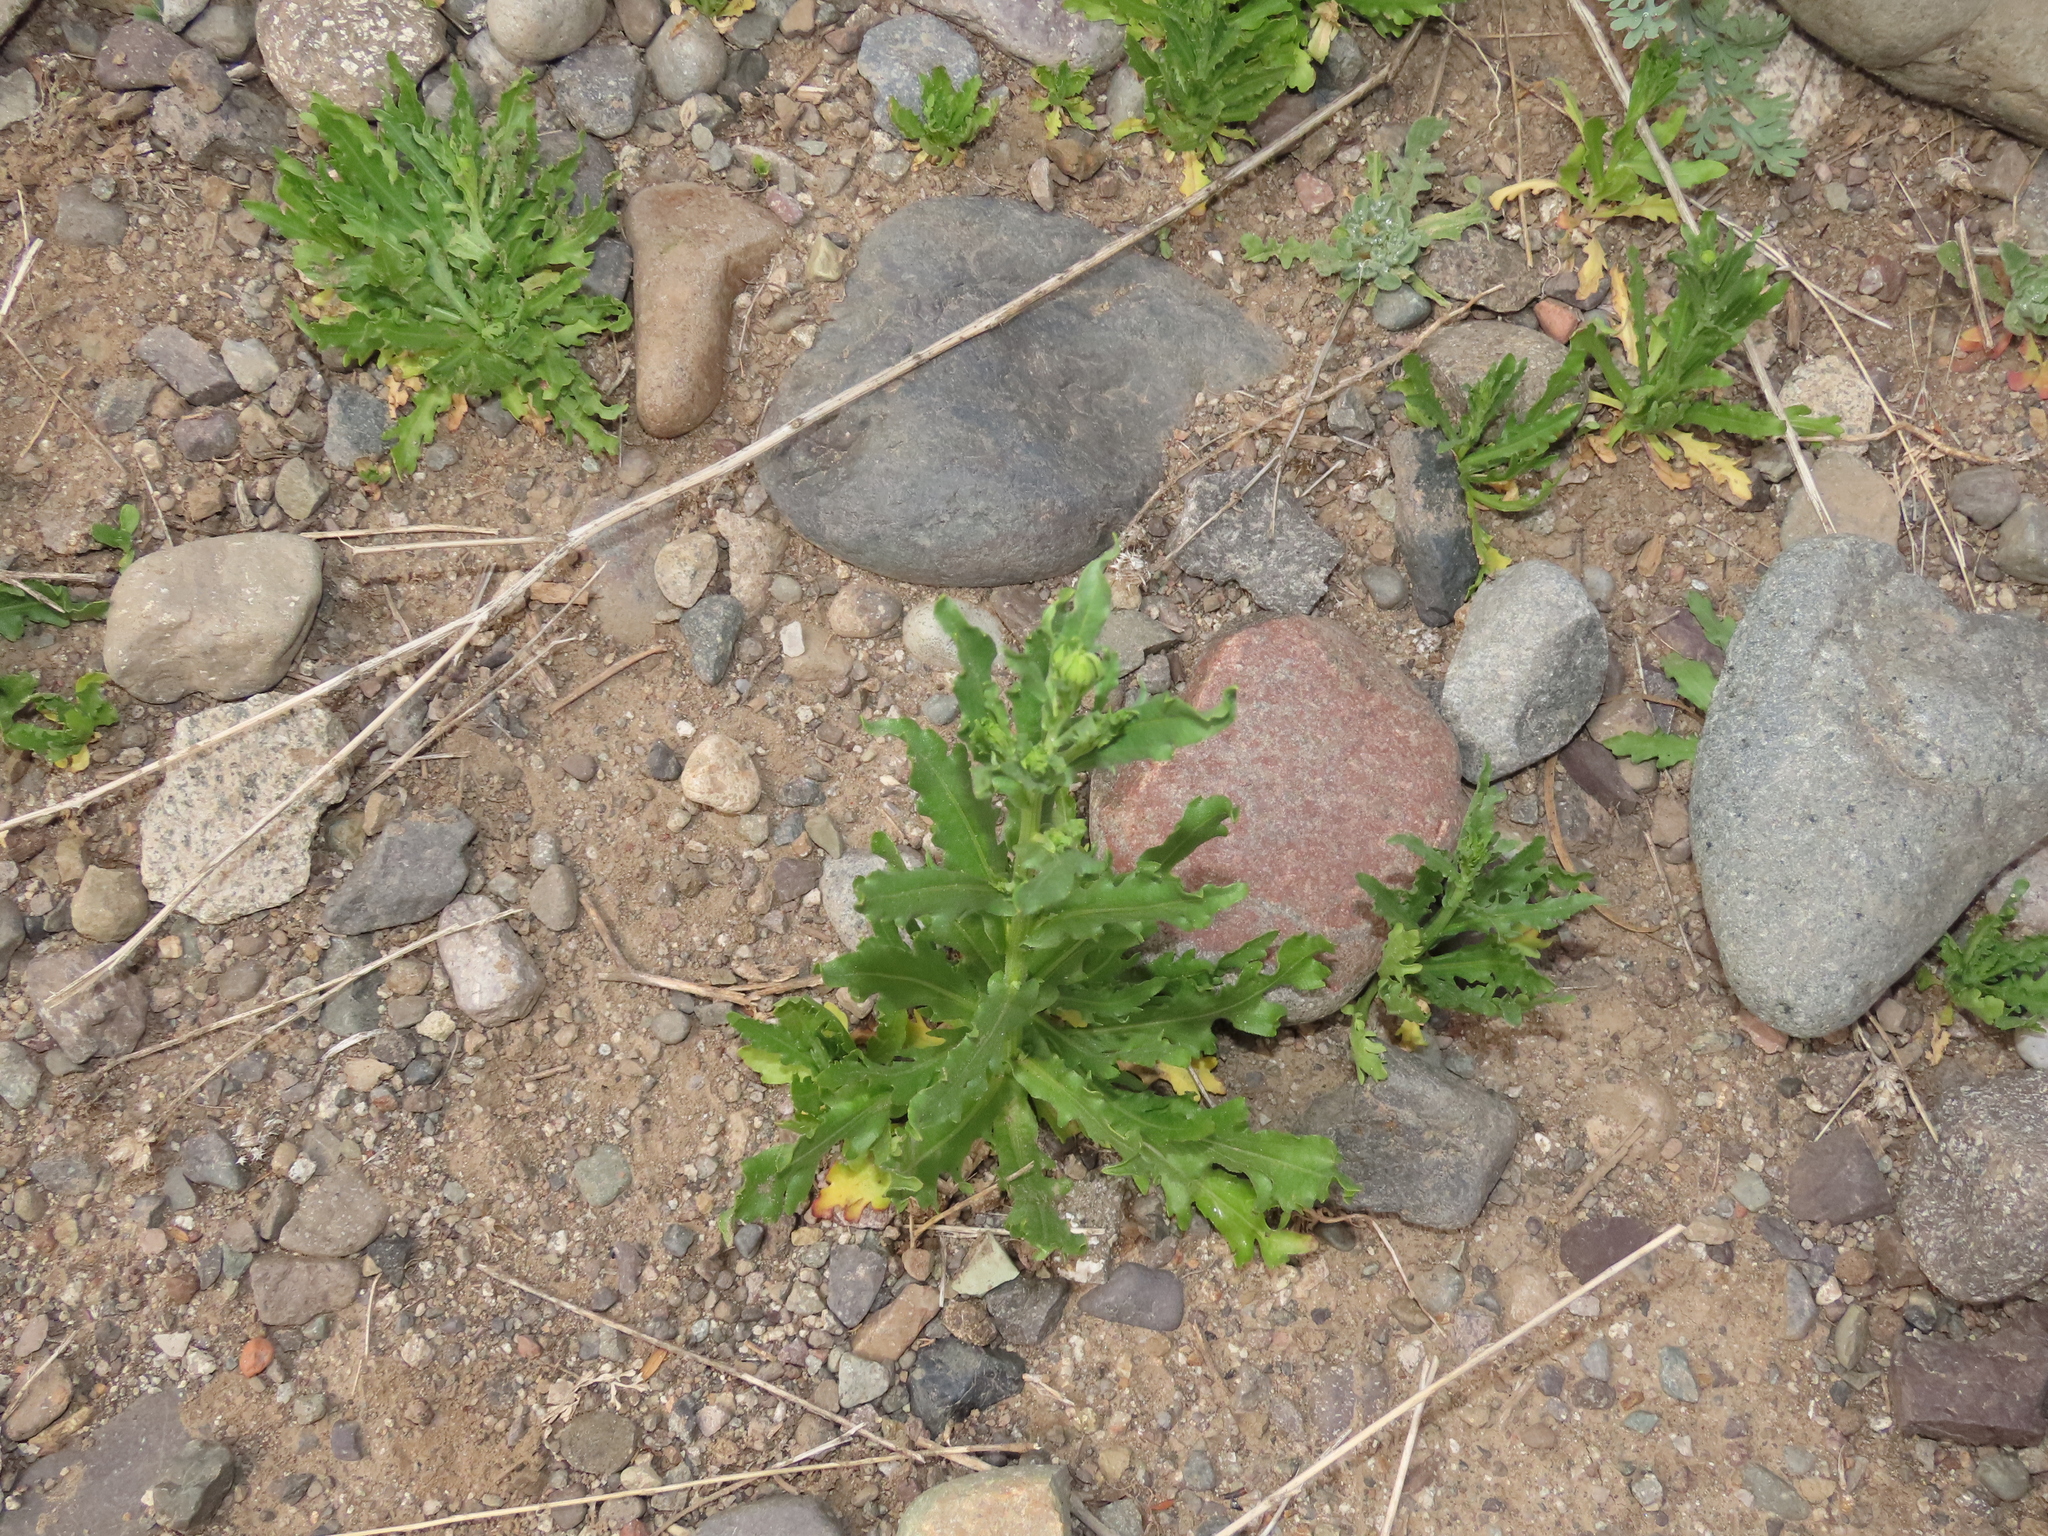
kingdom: Plantae
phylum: Tracheophyta
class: Magnoliopsida
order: Asterales
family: Asteraceae
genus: Helenium
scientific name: Helenium aromaticum
